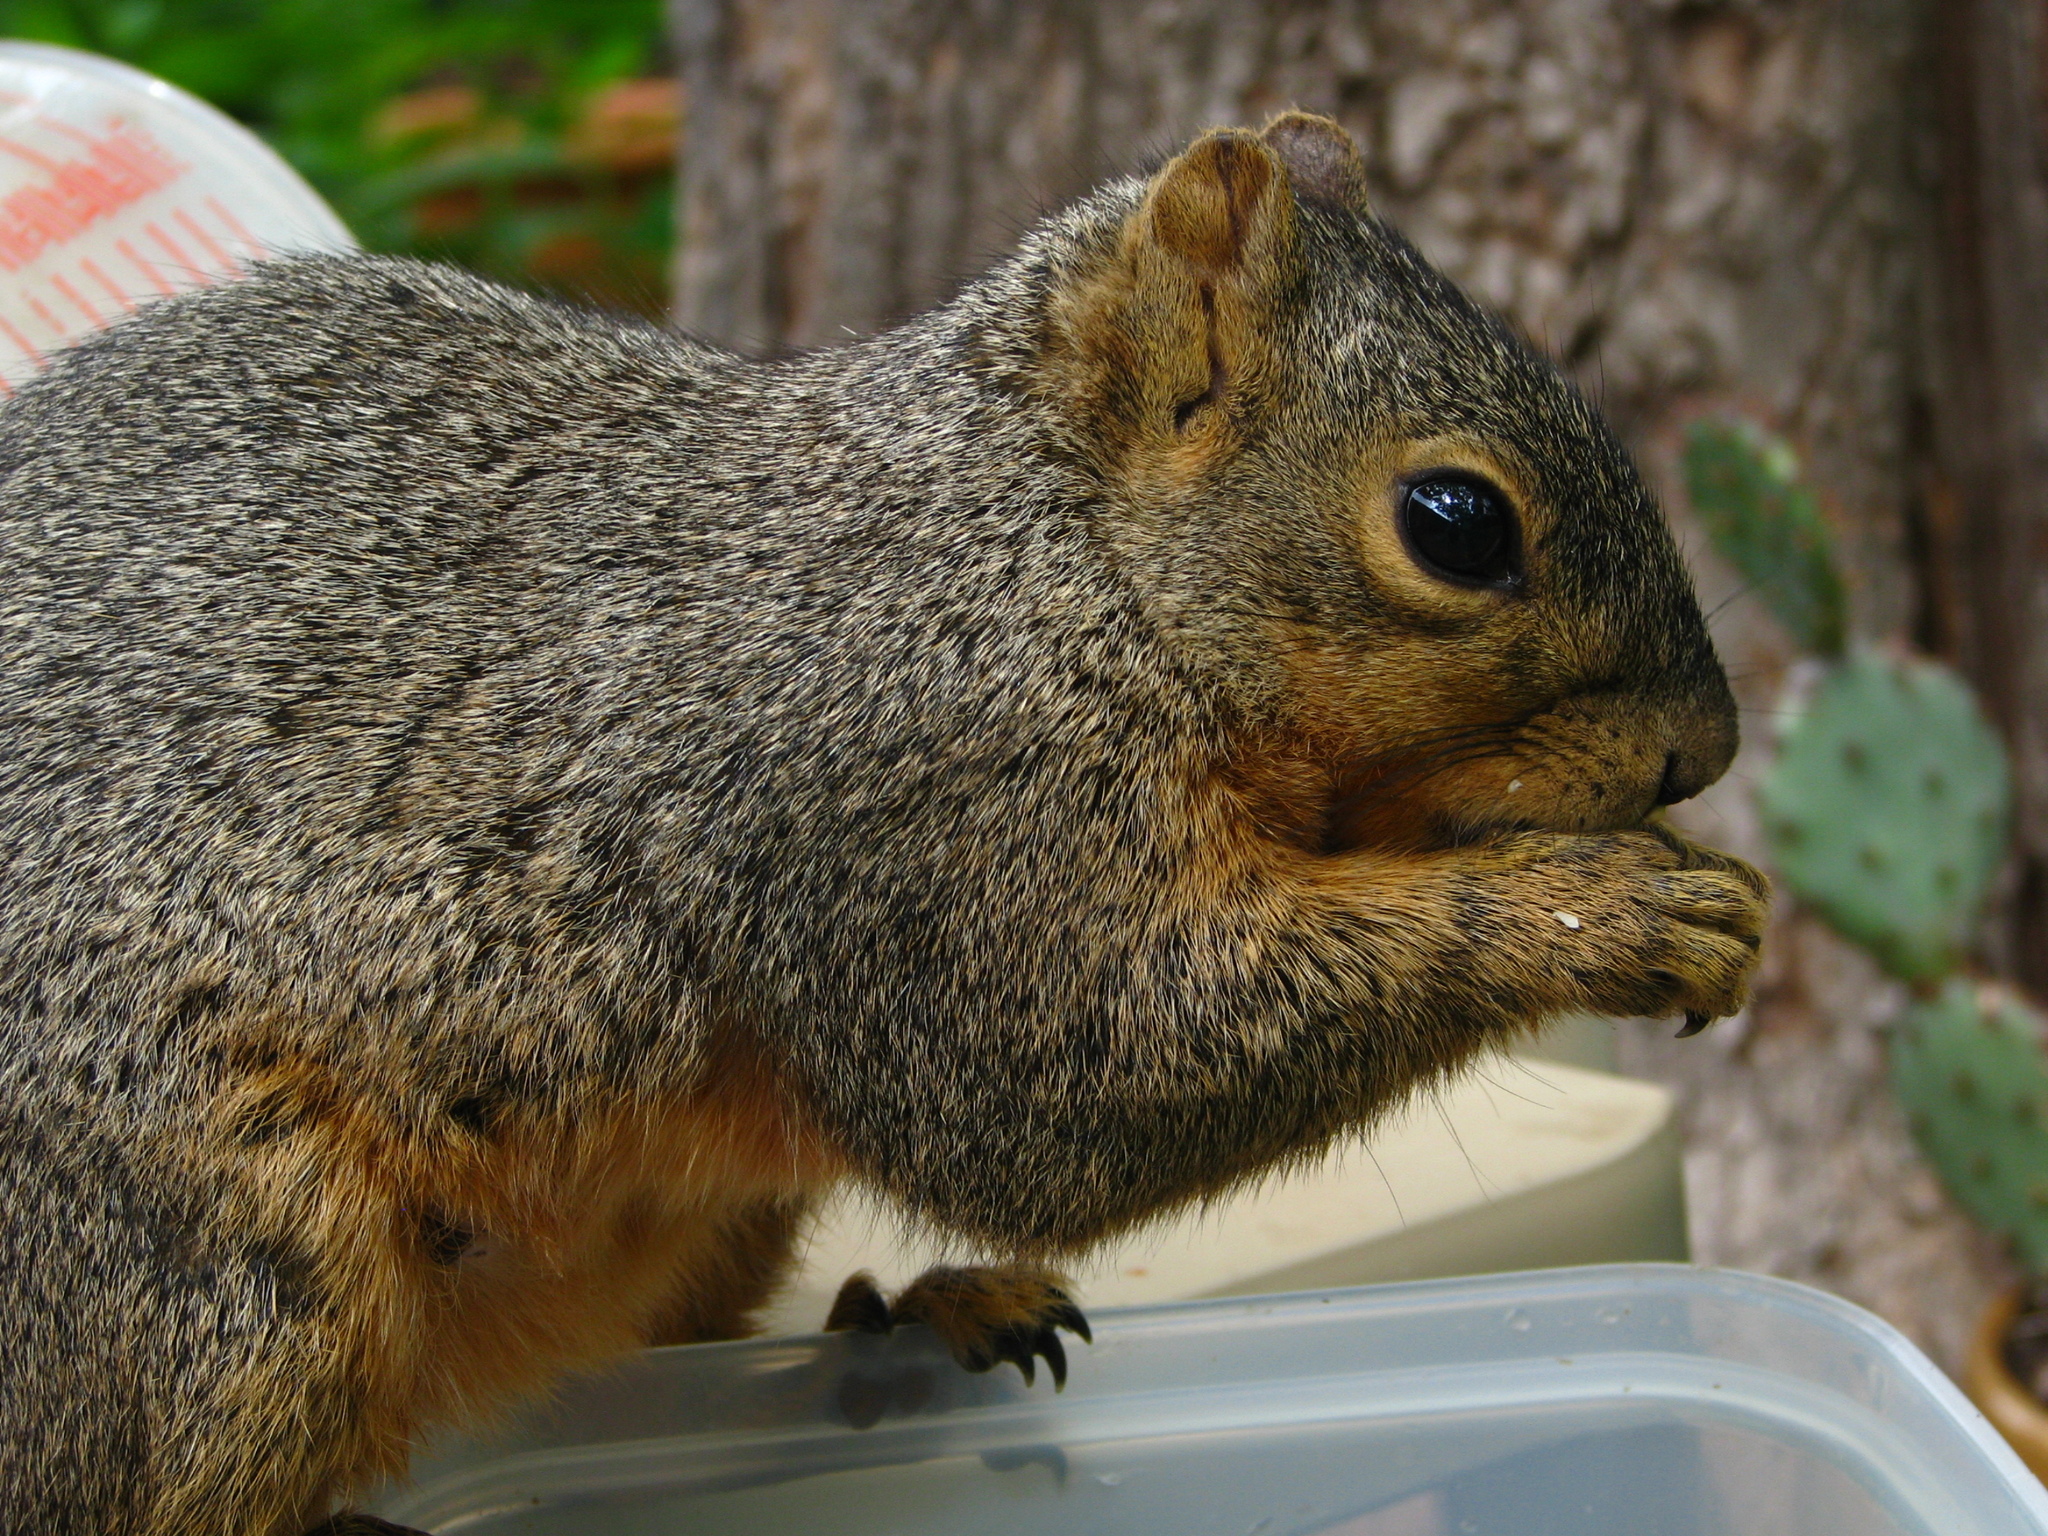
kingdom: Animalia
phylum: Chordata
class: Mammalia
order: Rodentia
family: Sciuridae
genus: Sciurus
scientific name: Sciurus niger
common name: Fox squirrel
